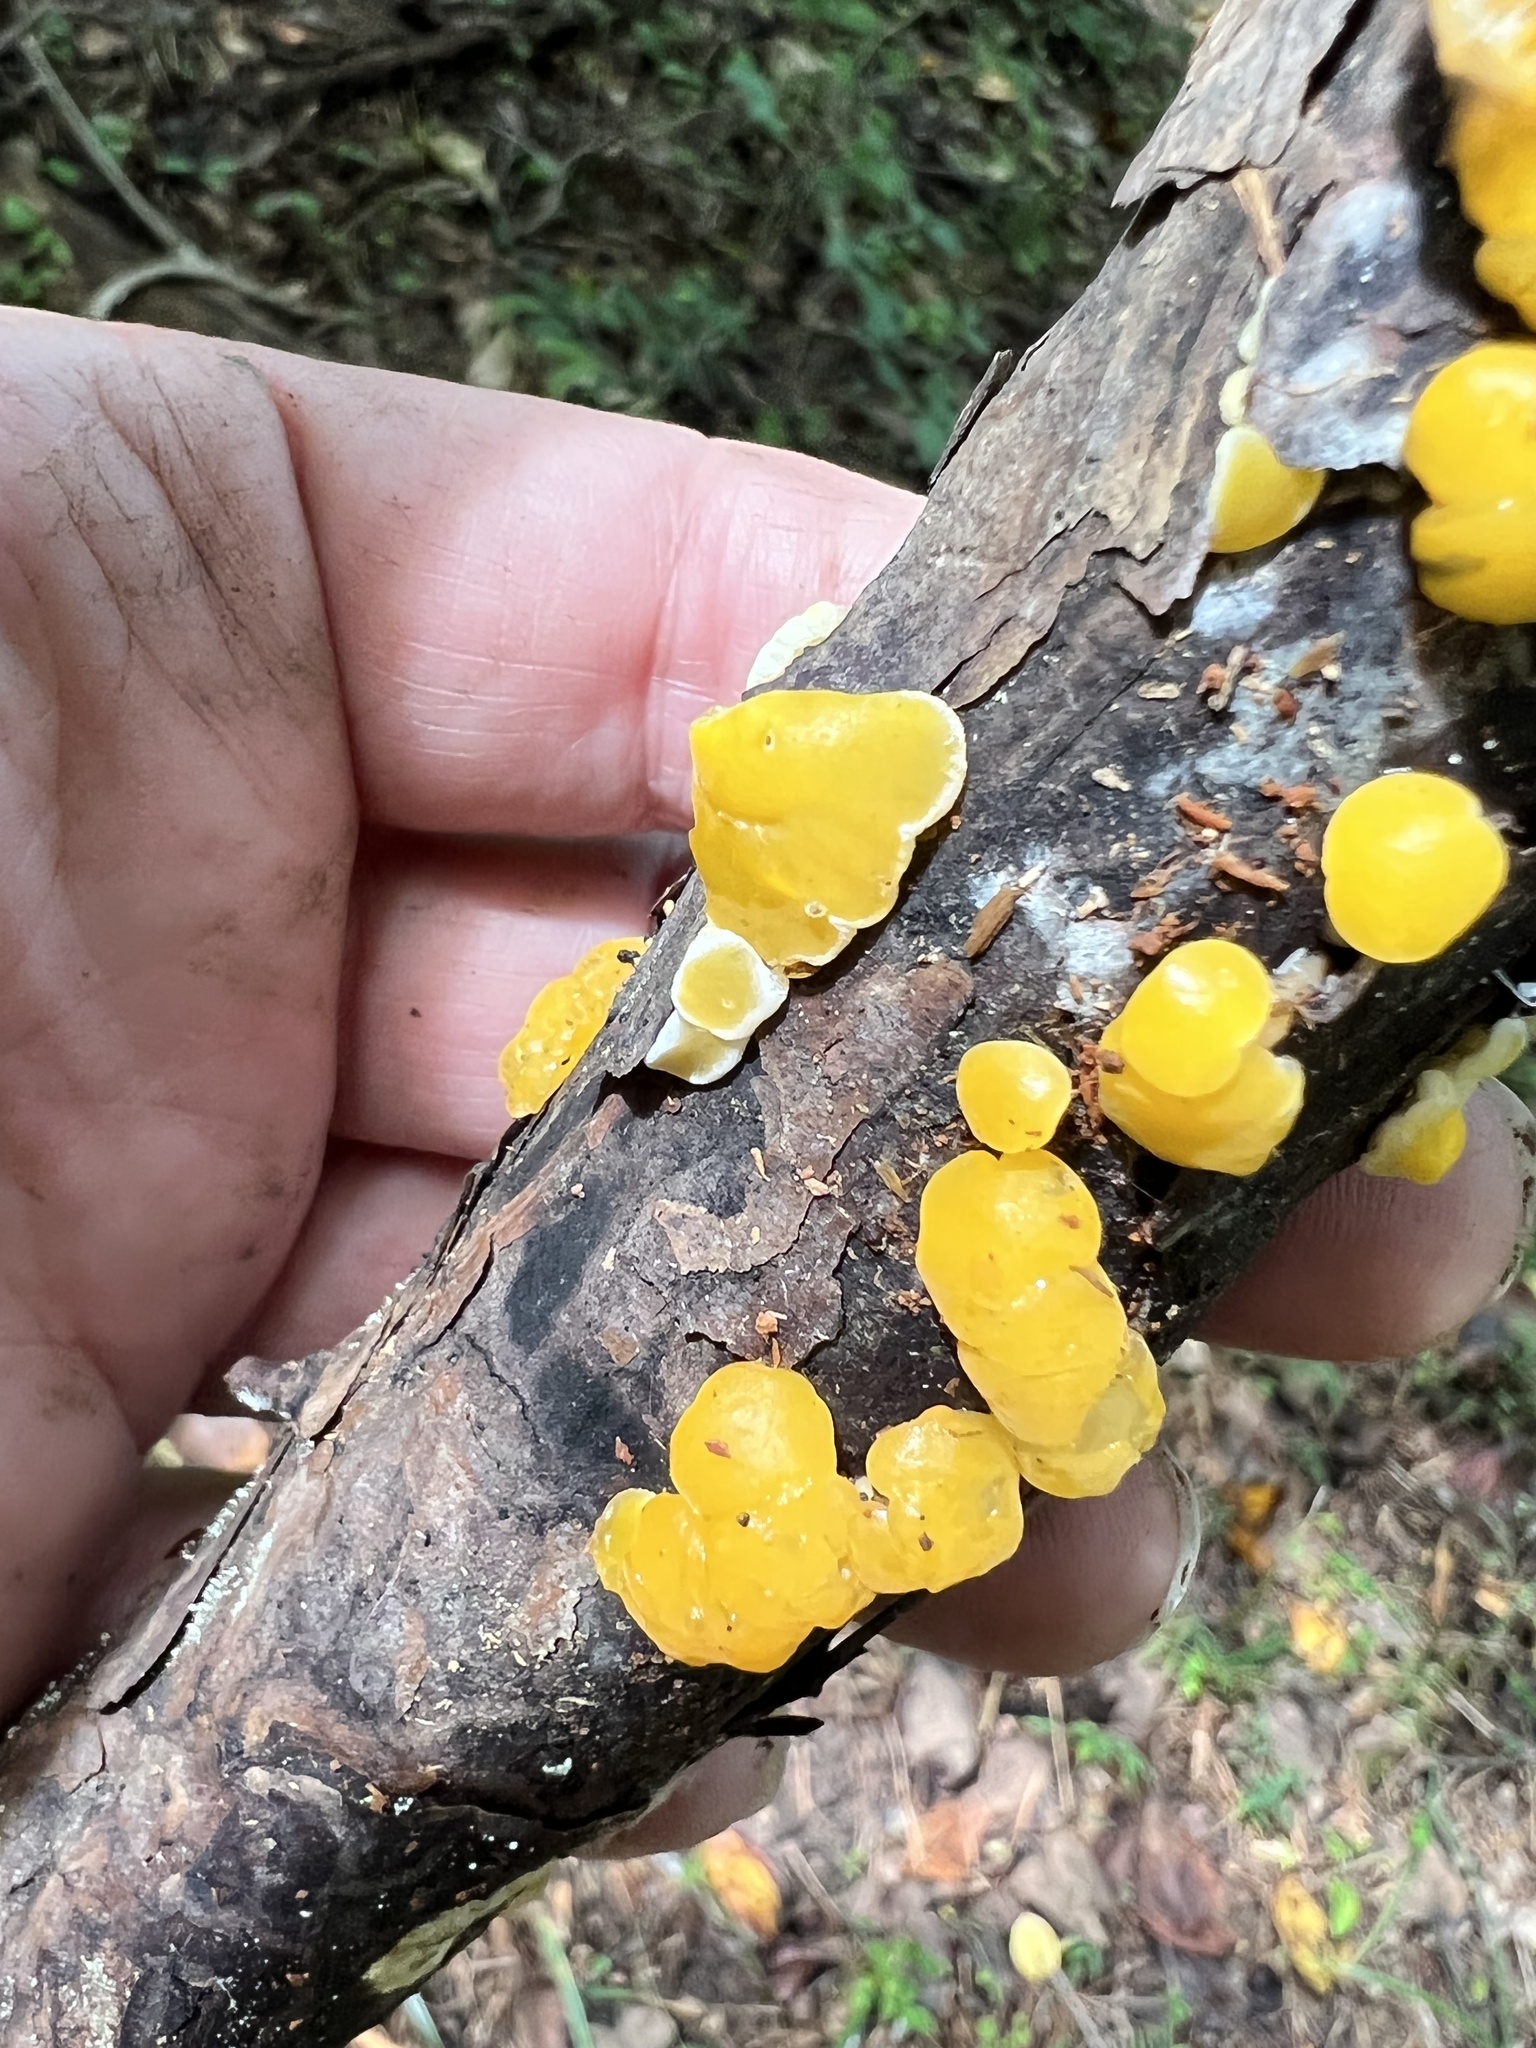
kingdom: Fungi
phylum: Basidiomycota
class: Dacrymycetes
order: Dacrymycetales
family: Dacrymycetaceae
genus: Ditiola
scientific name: Ditiola peziziformis
